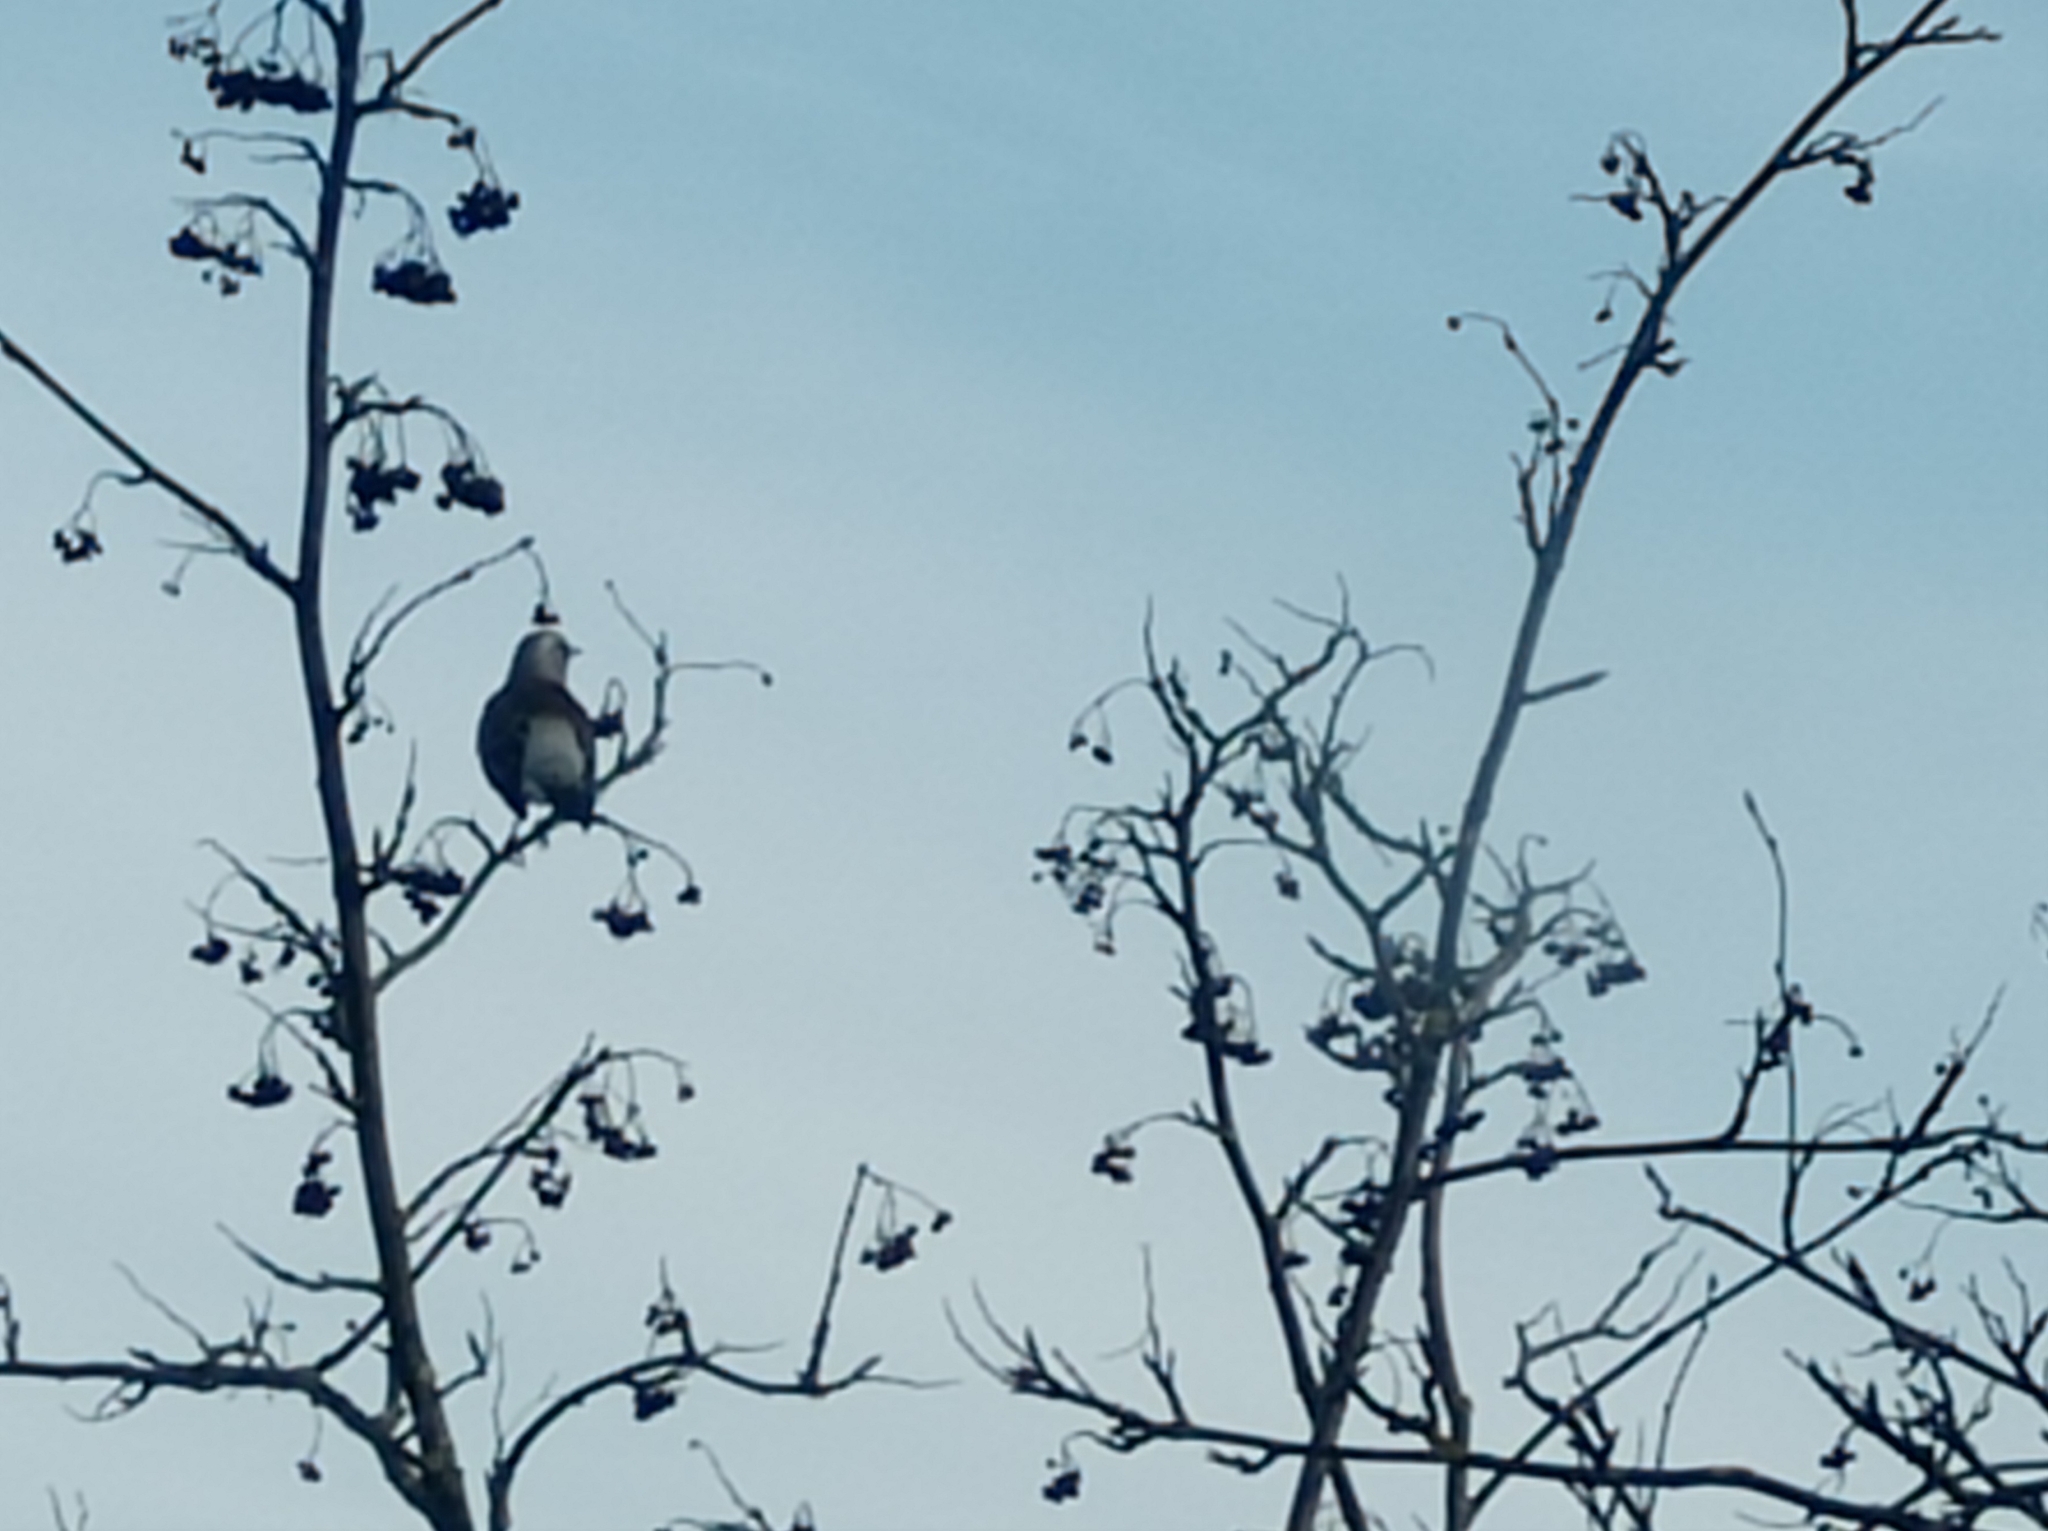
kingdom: Animalia
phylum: Chordata
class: Aves
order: Passeriformes
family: Turdidae
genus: Turdus
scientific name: Turdus pilaris
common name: Fieldfare
